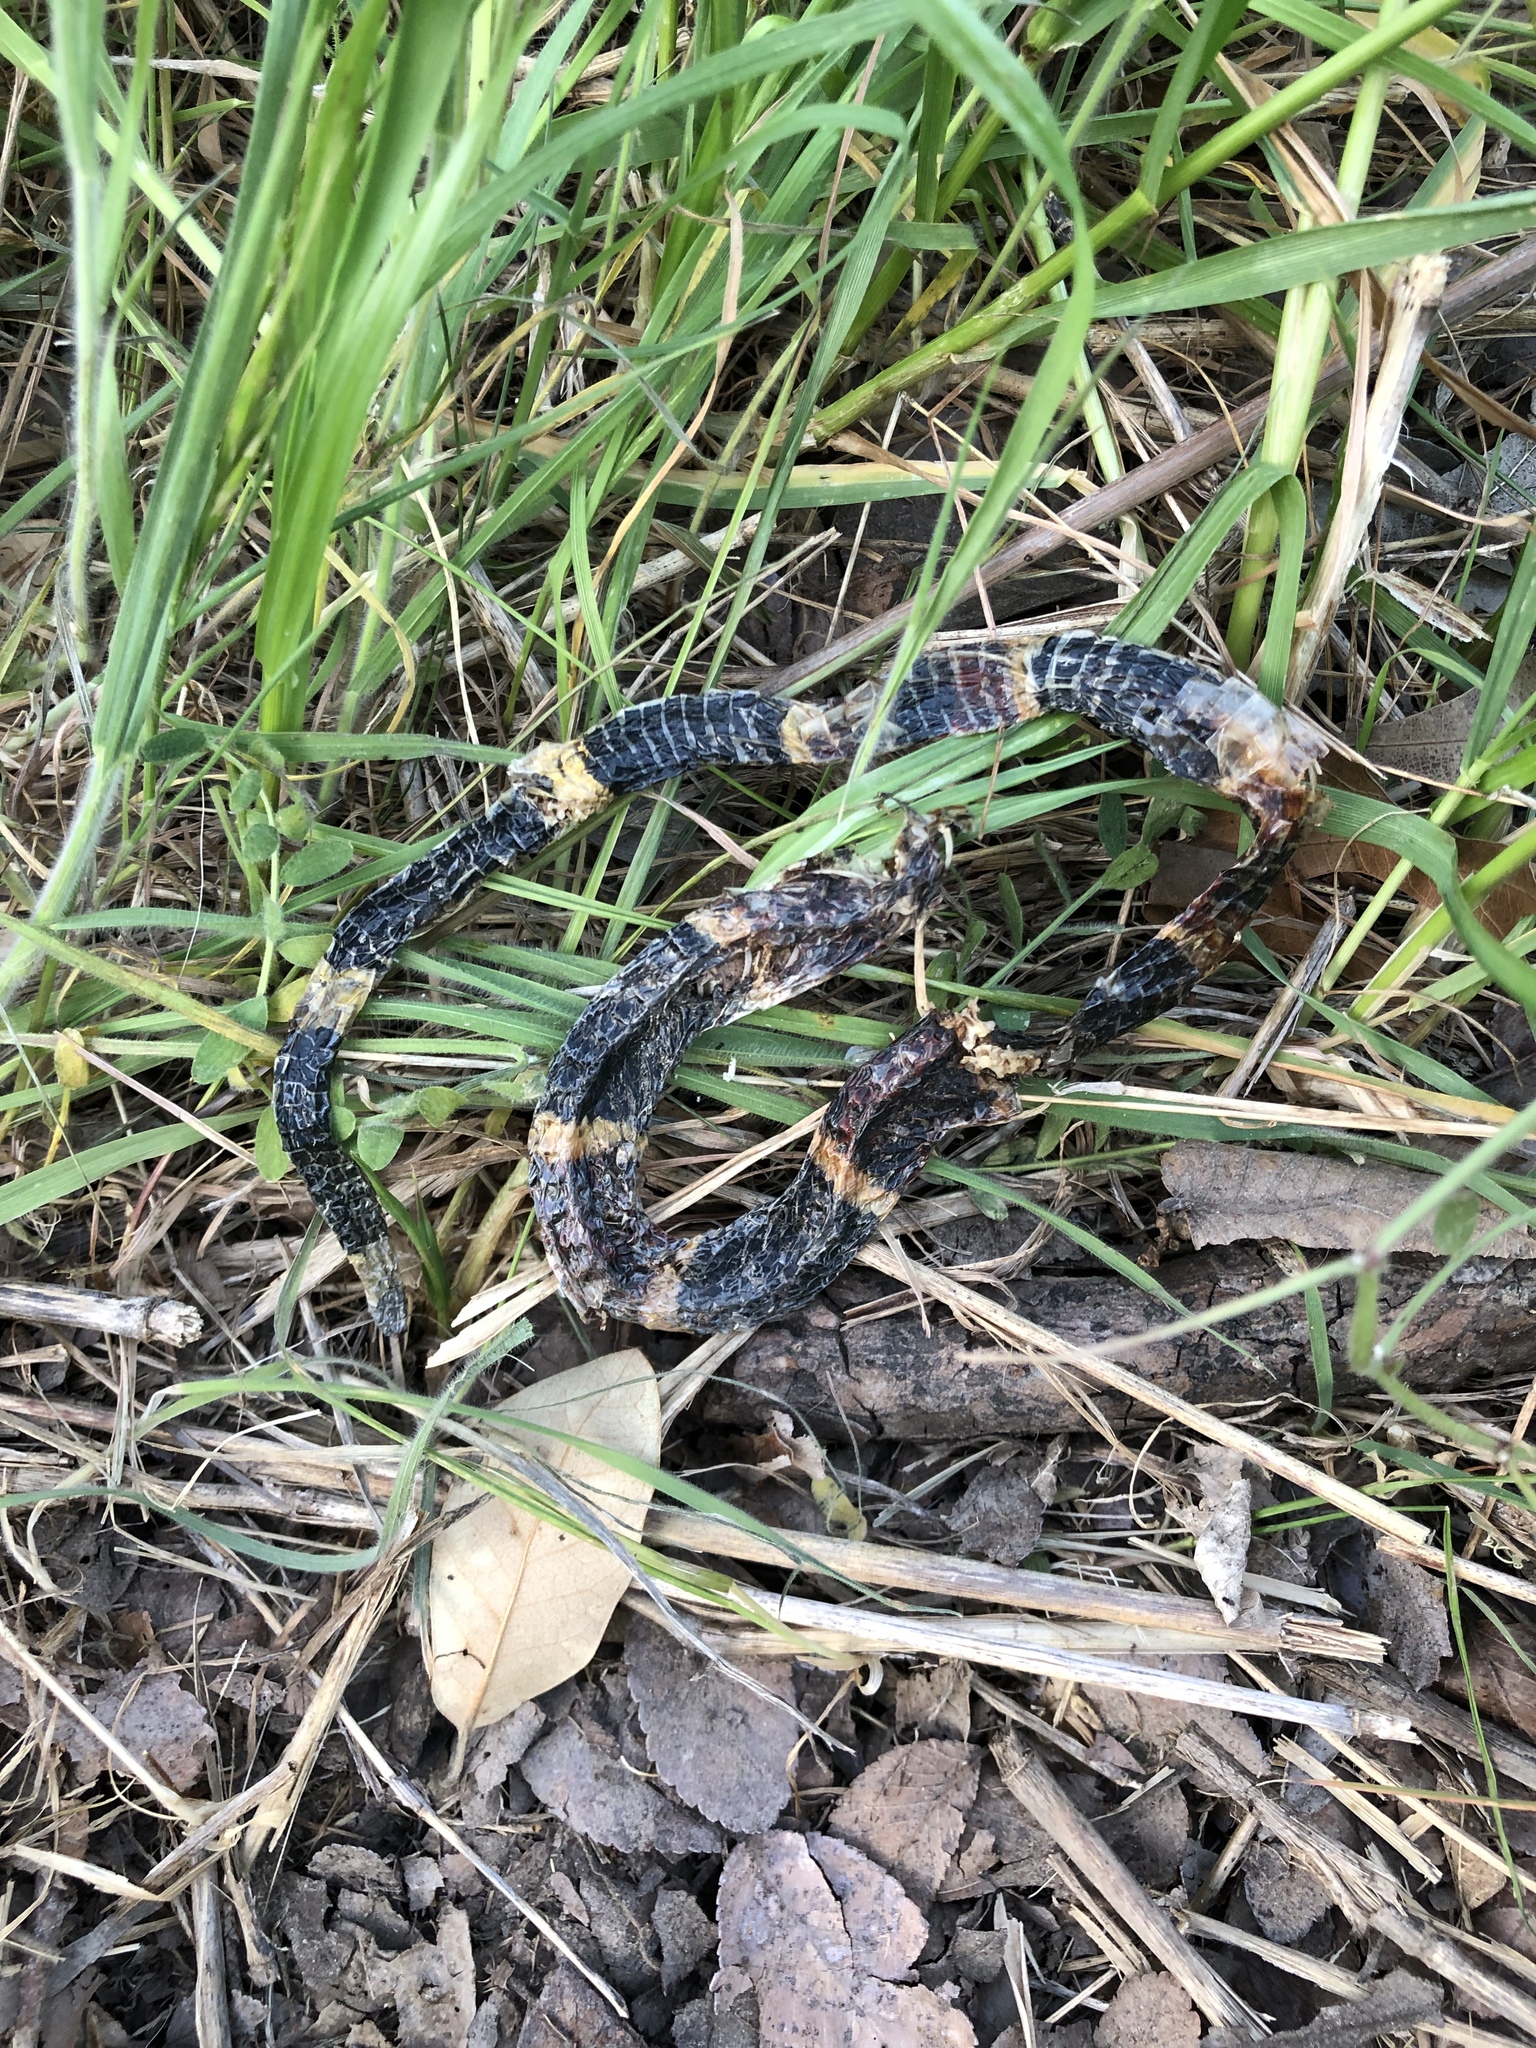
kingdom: Animalia
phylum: Chordata
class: Squamata
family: Elapidae
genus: Micrurus
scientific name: Micrurus tener
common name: Texas coral snake
